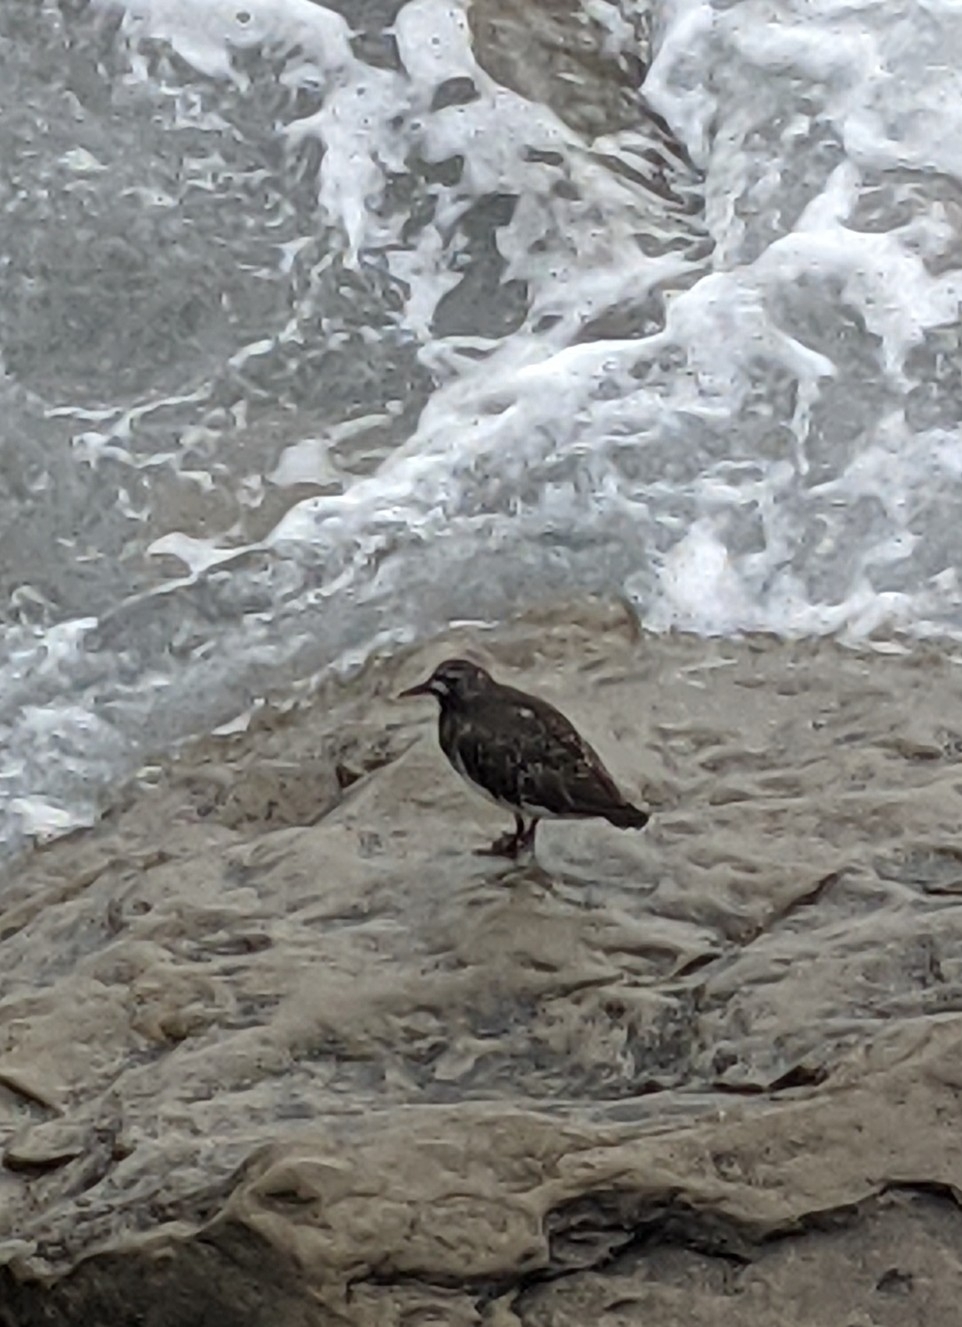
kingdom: Animalia
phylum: Chordata
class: Aves
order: Charadriiformes
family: Scolopacidae
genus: Arenaria
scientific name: Arenaria melanocephala
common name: Black turnstone
